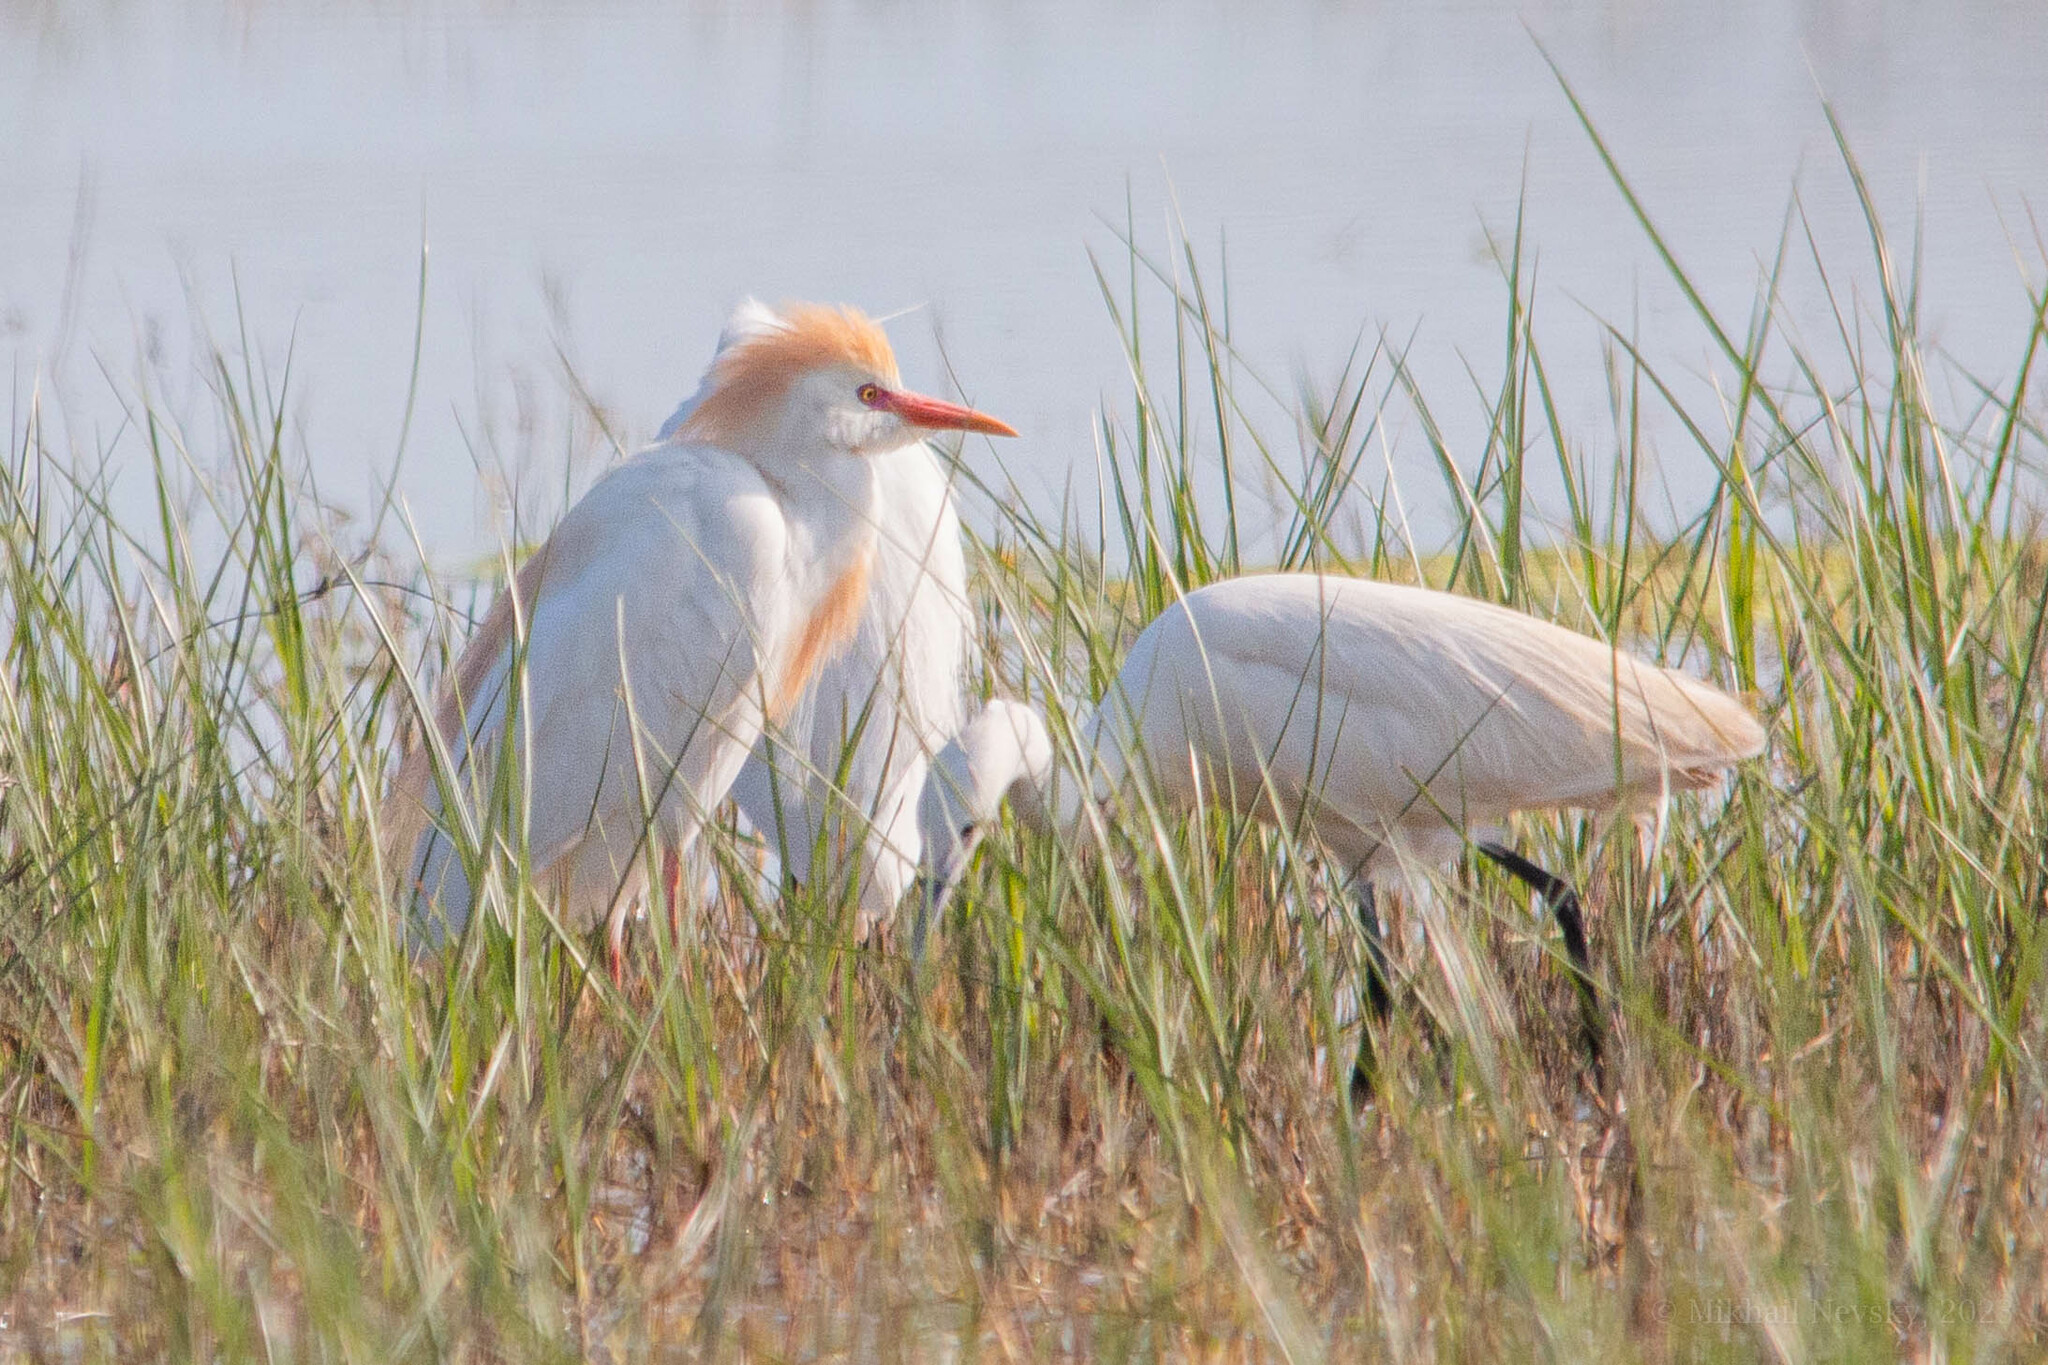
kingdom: Animalia
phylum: Chordata
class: Aves
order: Pelecaniformes
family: Ardeidae
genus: Bubulcus
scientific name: Bubulcus ibis
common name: Cattle egret
